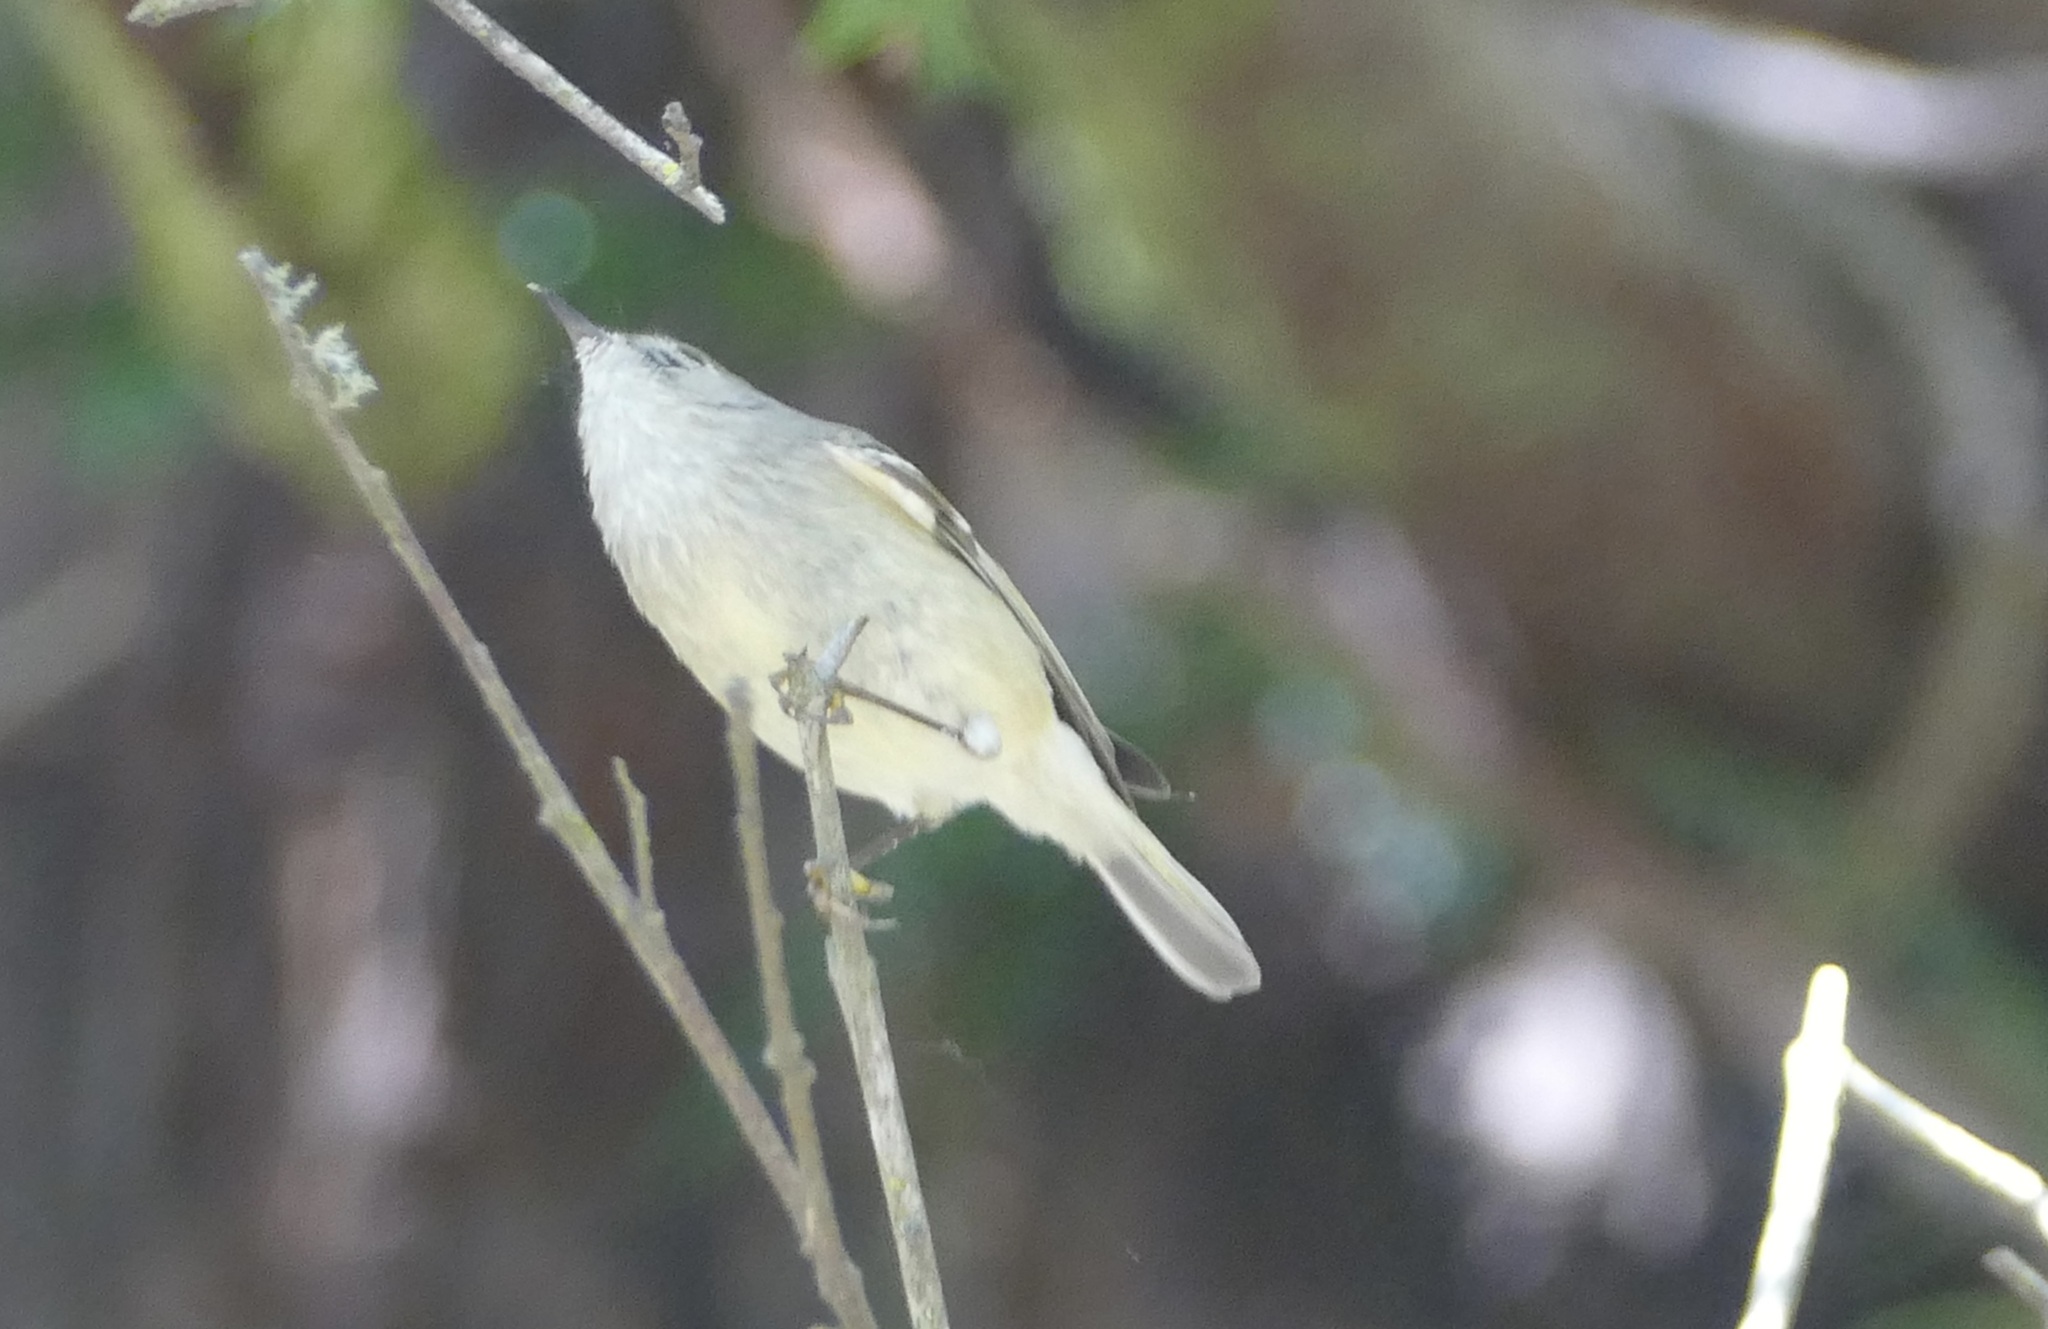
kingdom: Animalia
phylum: Chordata
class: Aves
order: Passeriformes
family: Regulidae
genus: Regulus
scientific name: Regulus calendula
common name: Ruby-crowned kinglet
